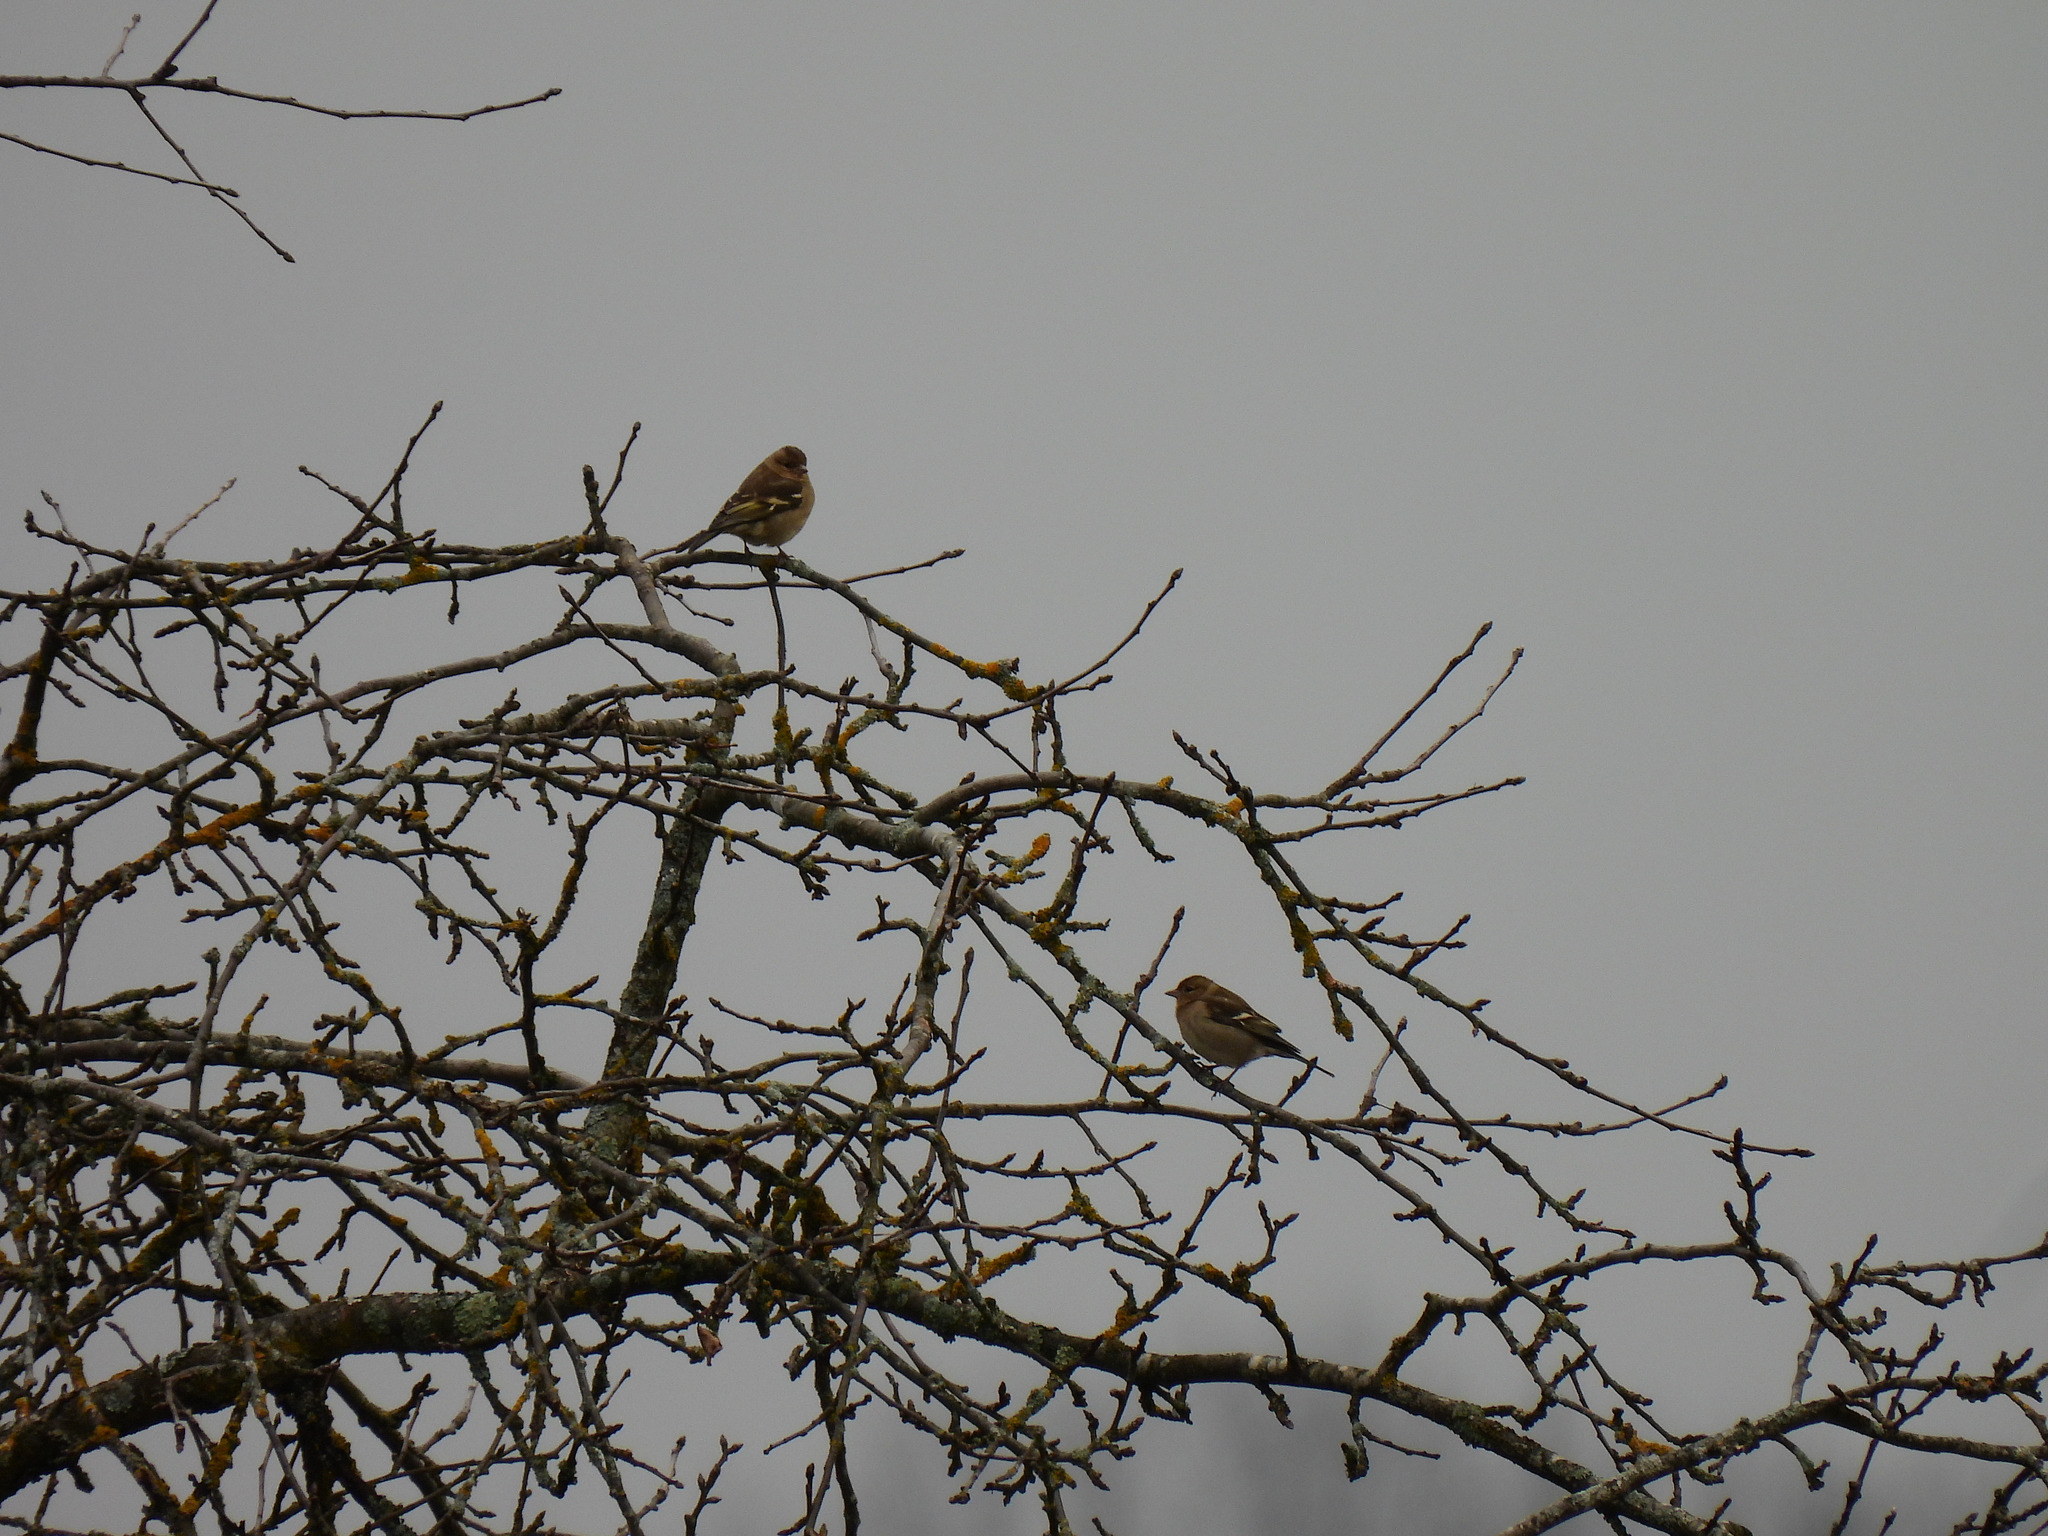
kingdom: Animalia
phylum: Chordata
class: Aves
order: Passeriformes
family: Fringillidae
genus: Fringilla
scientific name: Fringilla coelebs
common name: Common chaffinch
